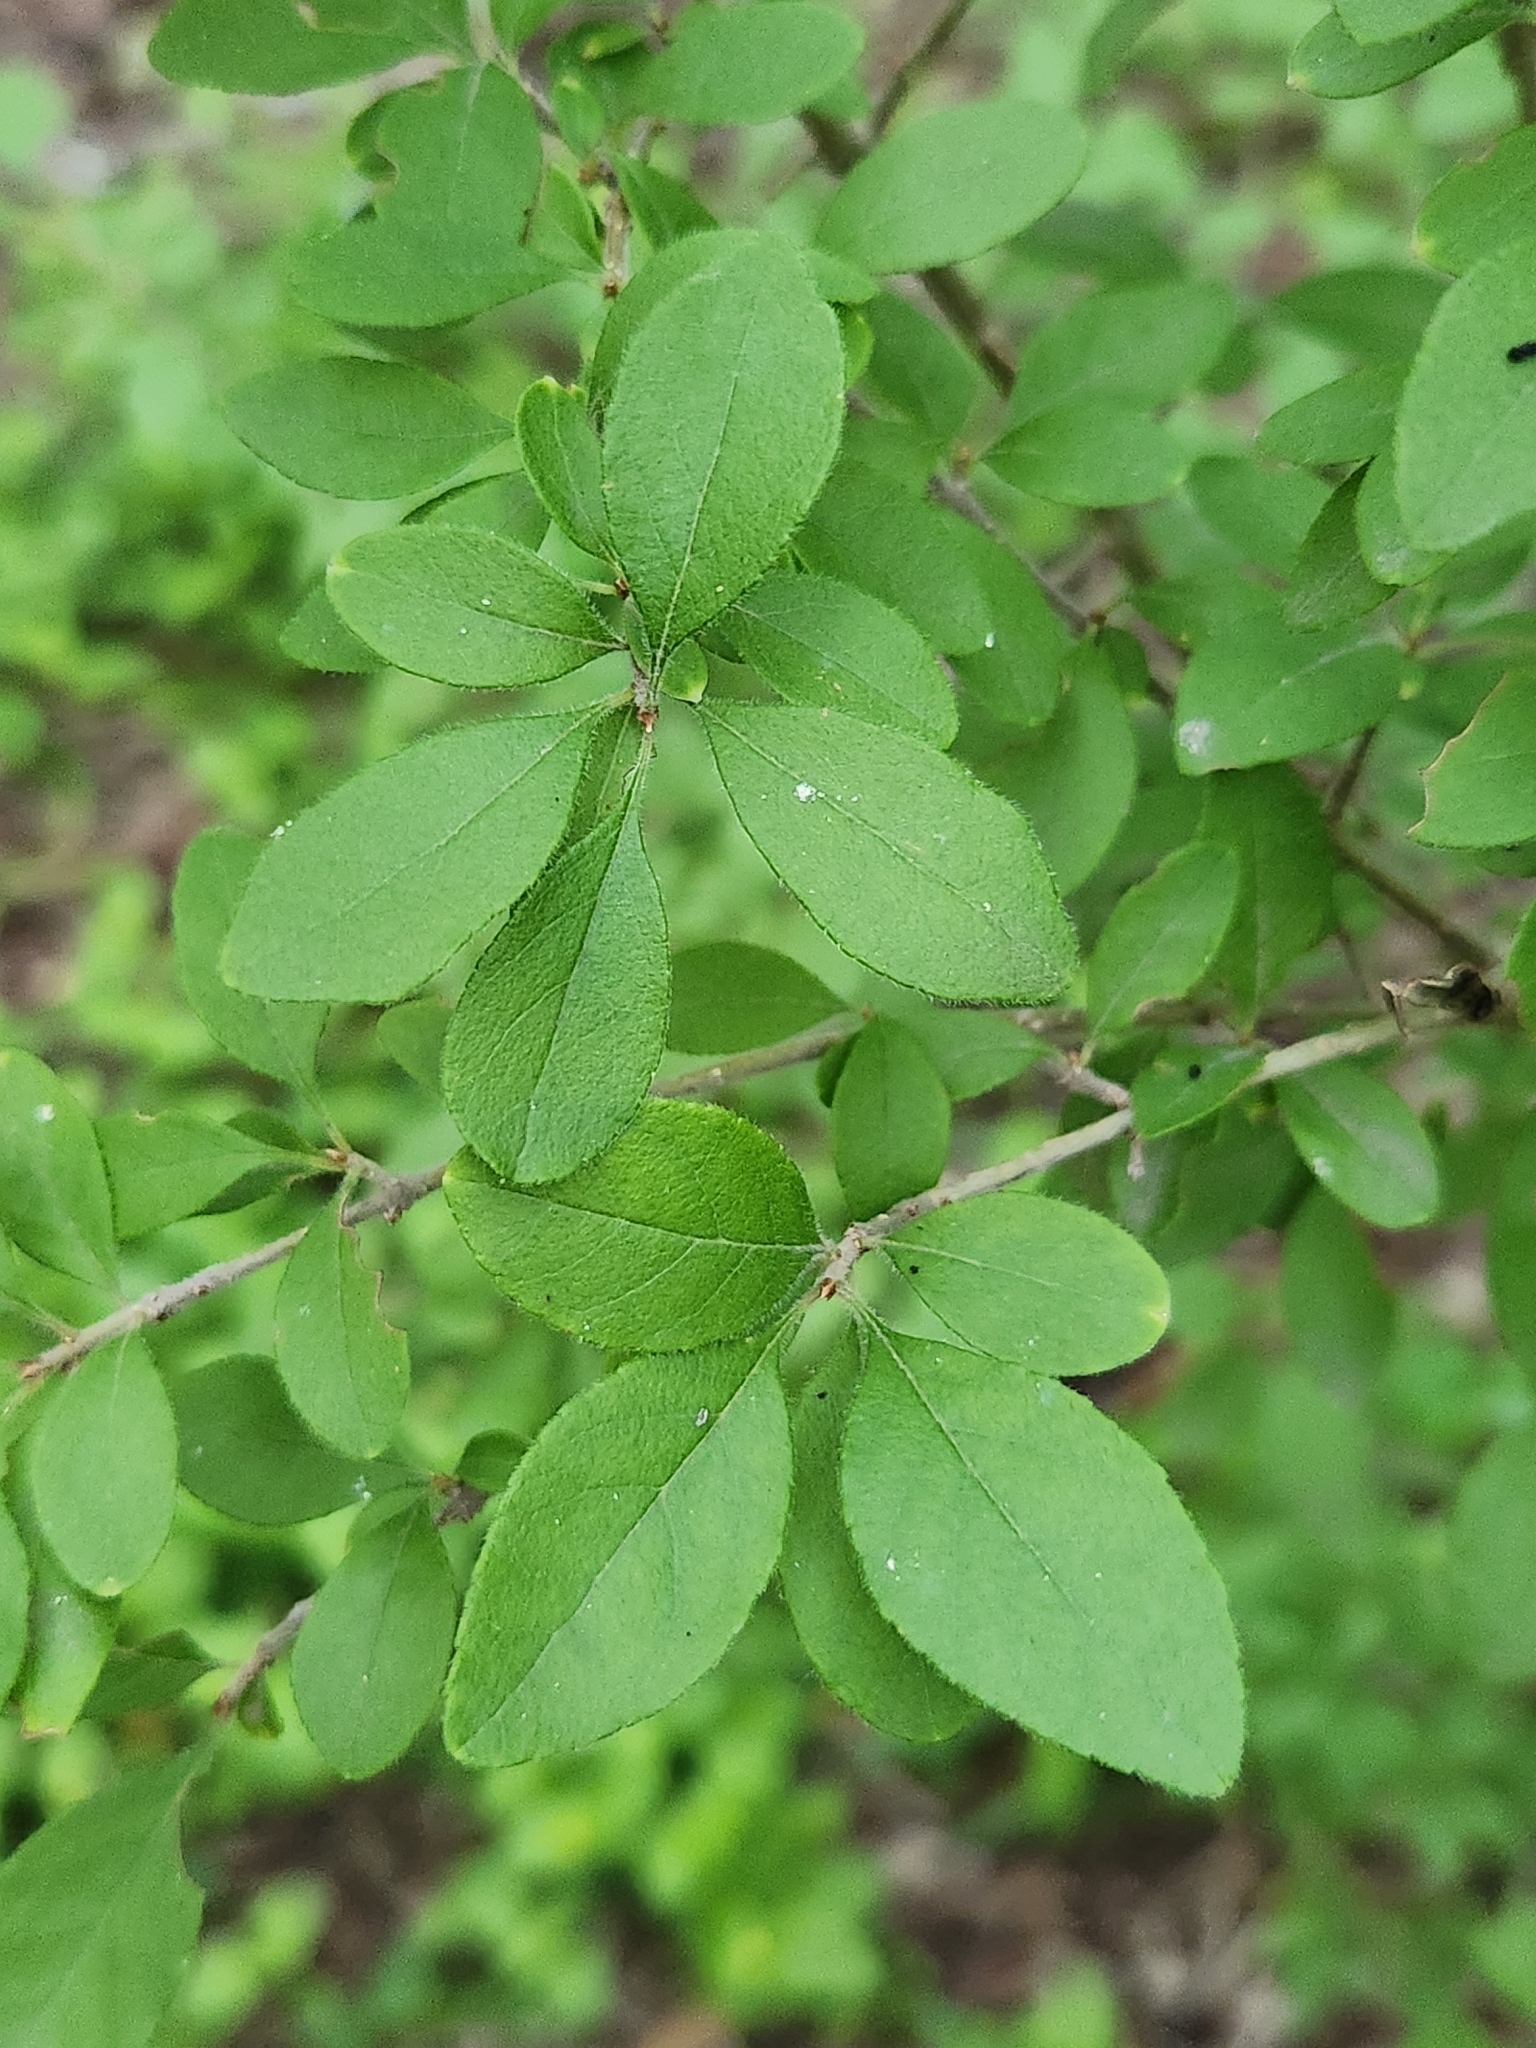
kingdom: Plantae
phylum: Tracheophyta
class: Magnoliopsida
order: Lamiales
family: Oleaceae
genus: Forestiera
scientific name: Forestiera pubescens
